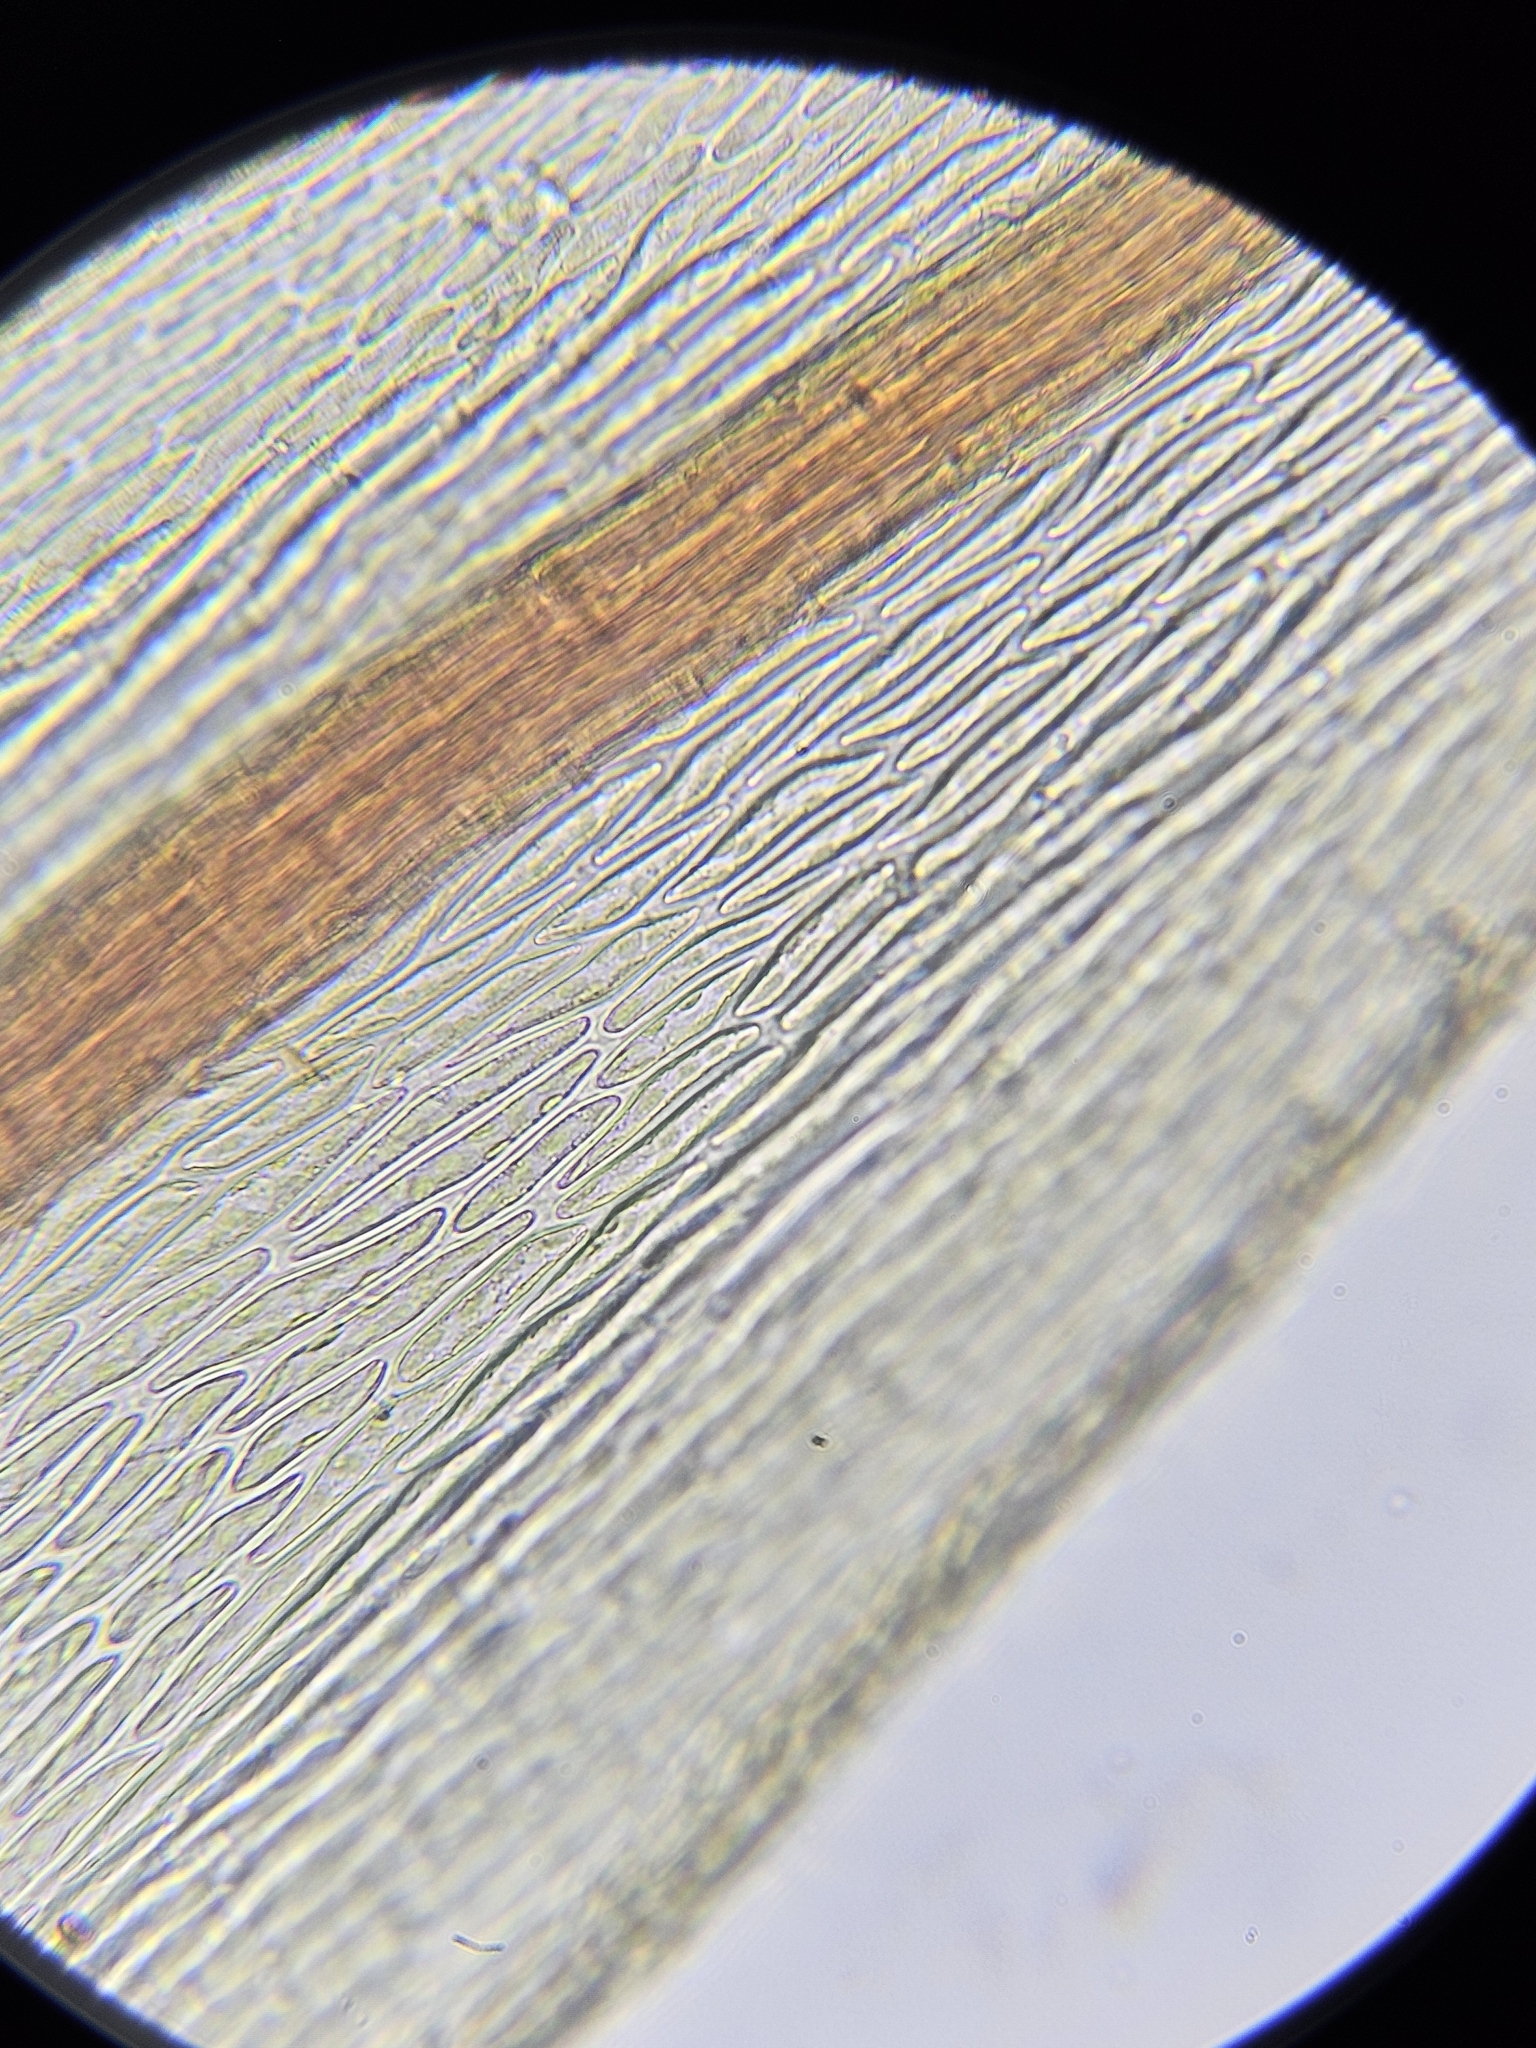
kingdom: Plantae
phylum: Bryophyta
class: Bryopsida
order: Bryales
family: Bryaceae
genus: Imbribryum
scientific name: Imbribryum alpinum
